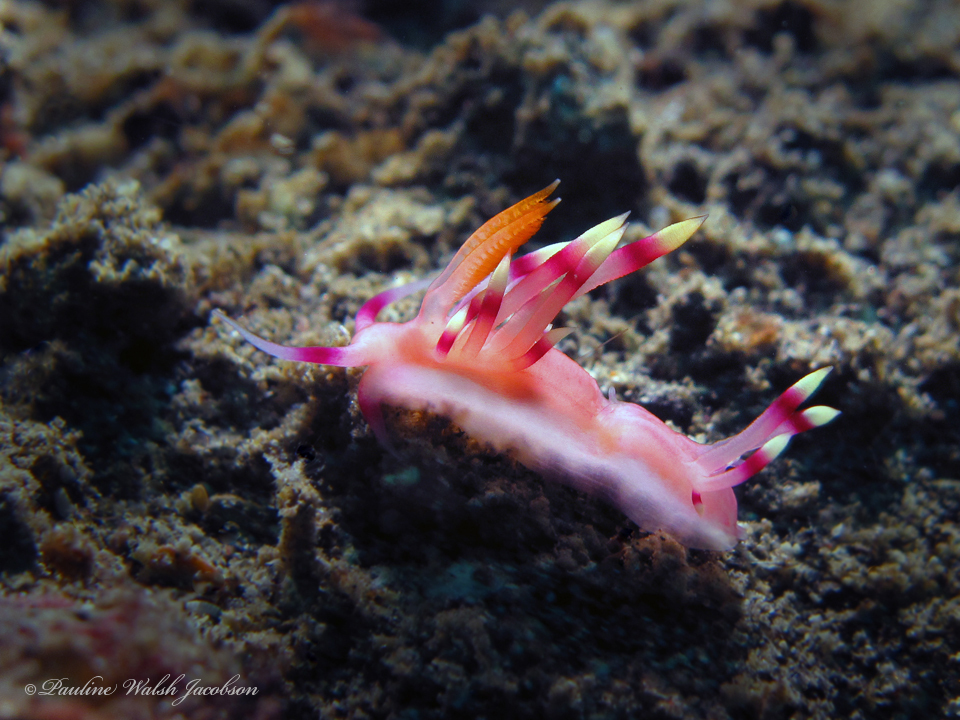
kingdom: Animalia
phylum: Mollusca
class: Gastropoda
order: Nudibranchia
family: Flabellinidae
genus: Coryphellina
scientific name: Coryphellina exoptata
